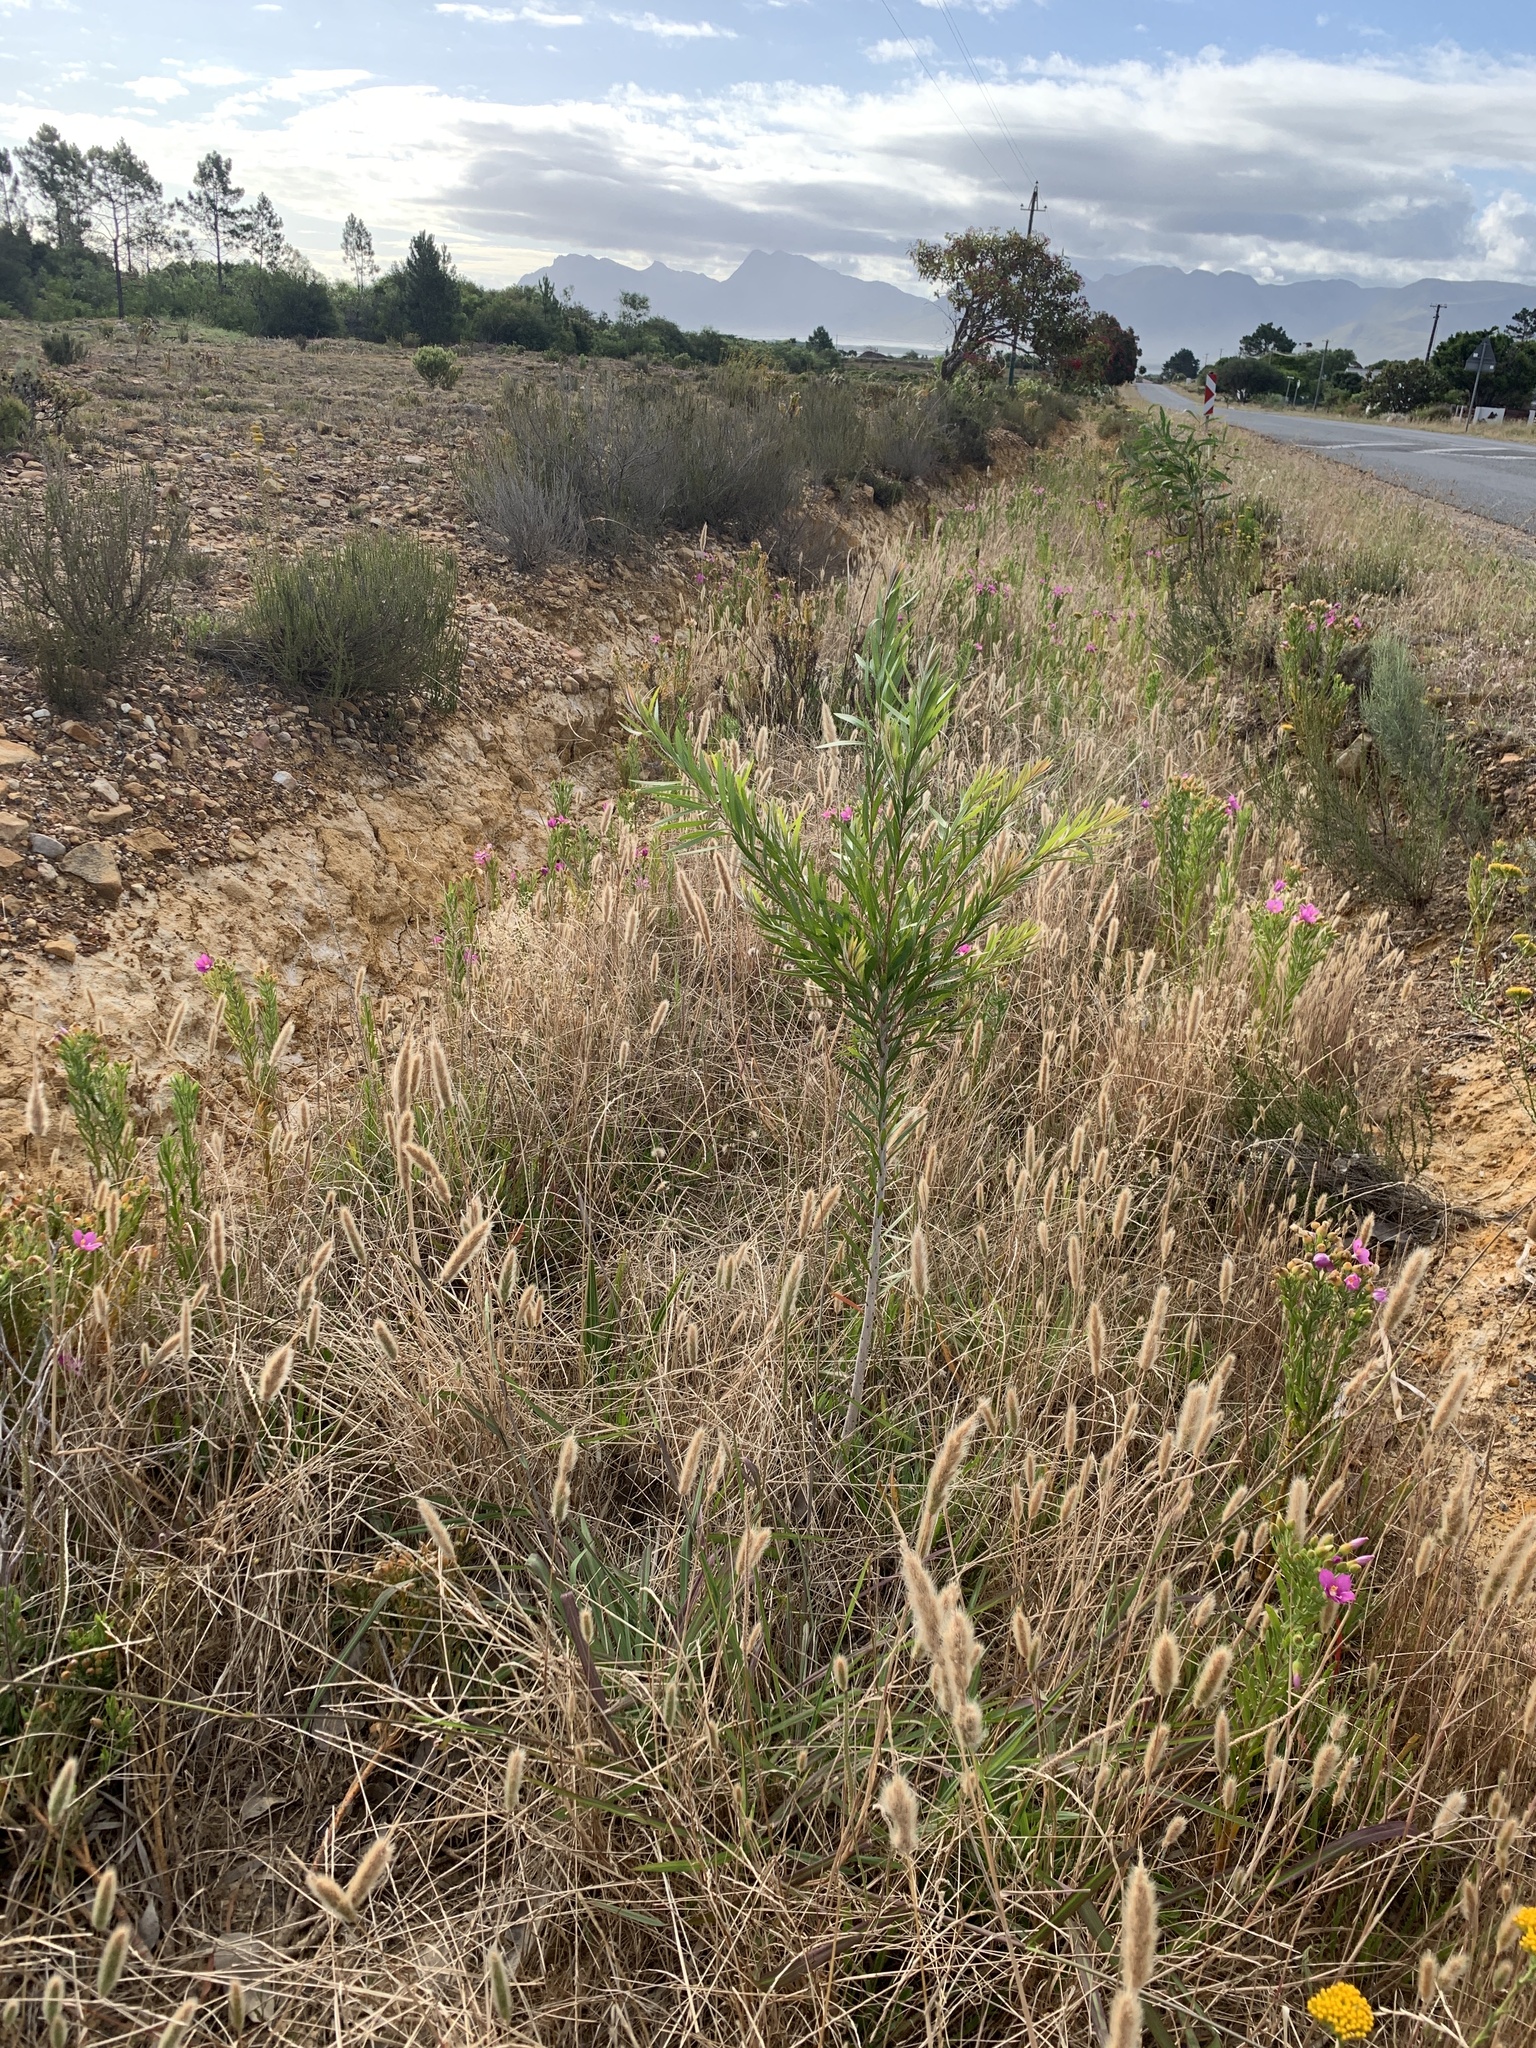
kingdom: Plantae
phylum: Tracheophyta
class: Magnoliopsida
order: Myrtales
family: Myrtaceae
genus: Callistemon
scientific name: Callistemon viminalis
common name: Drooping bottlebrush
